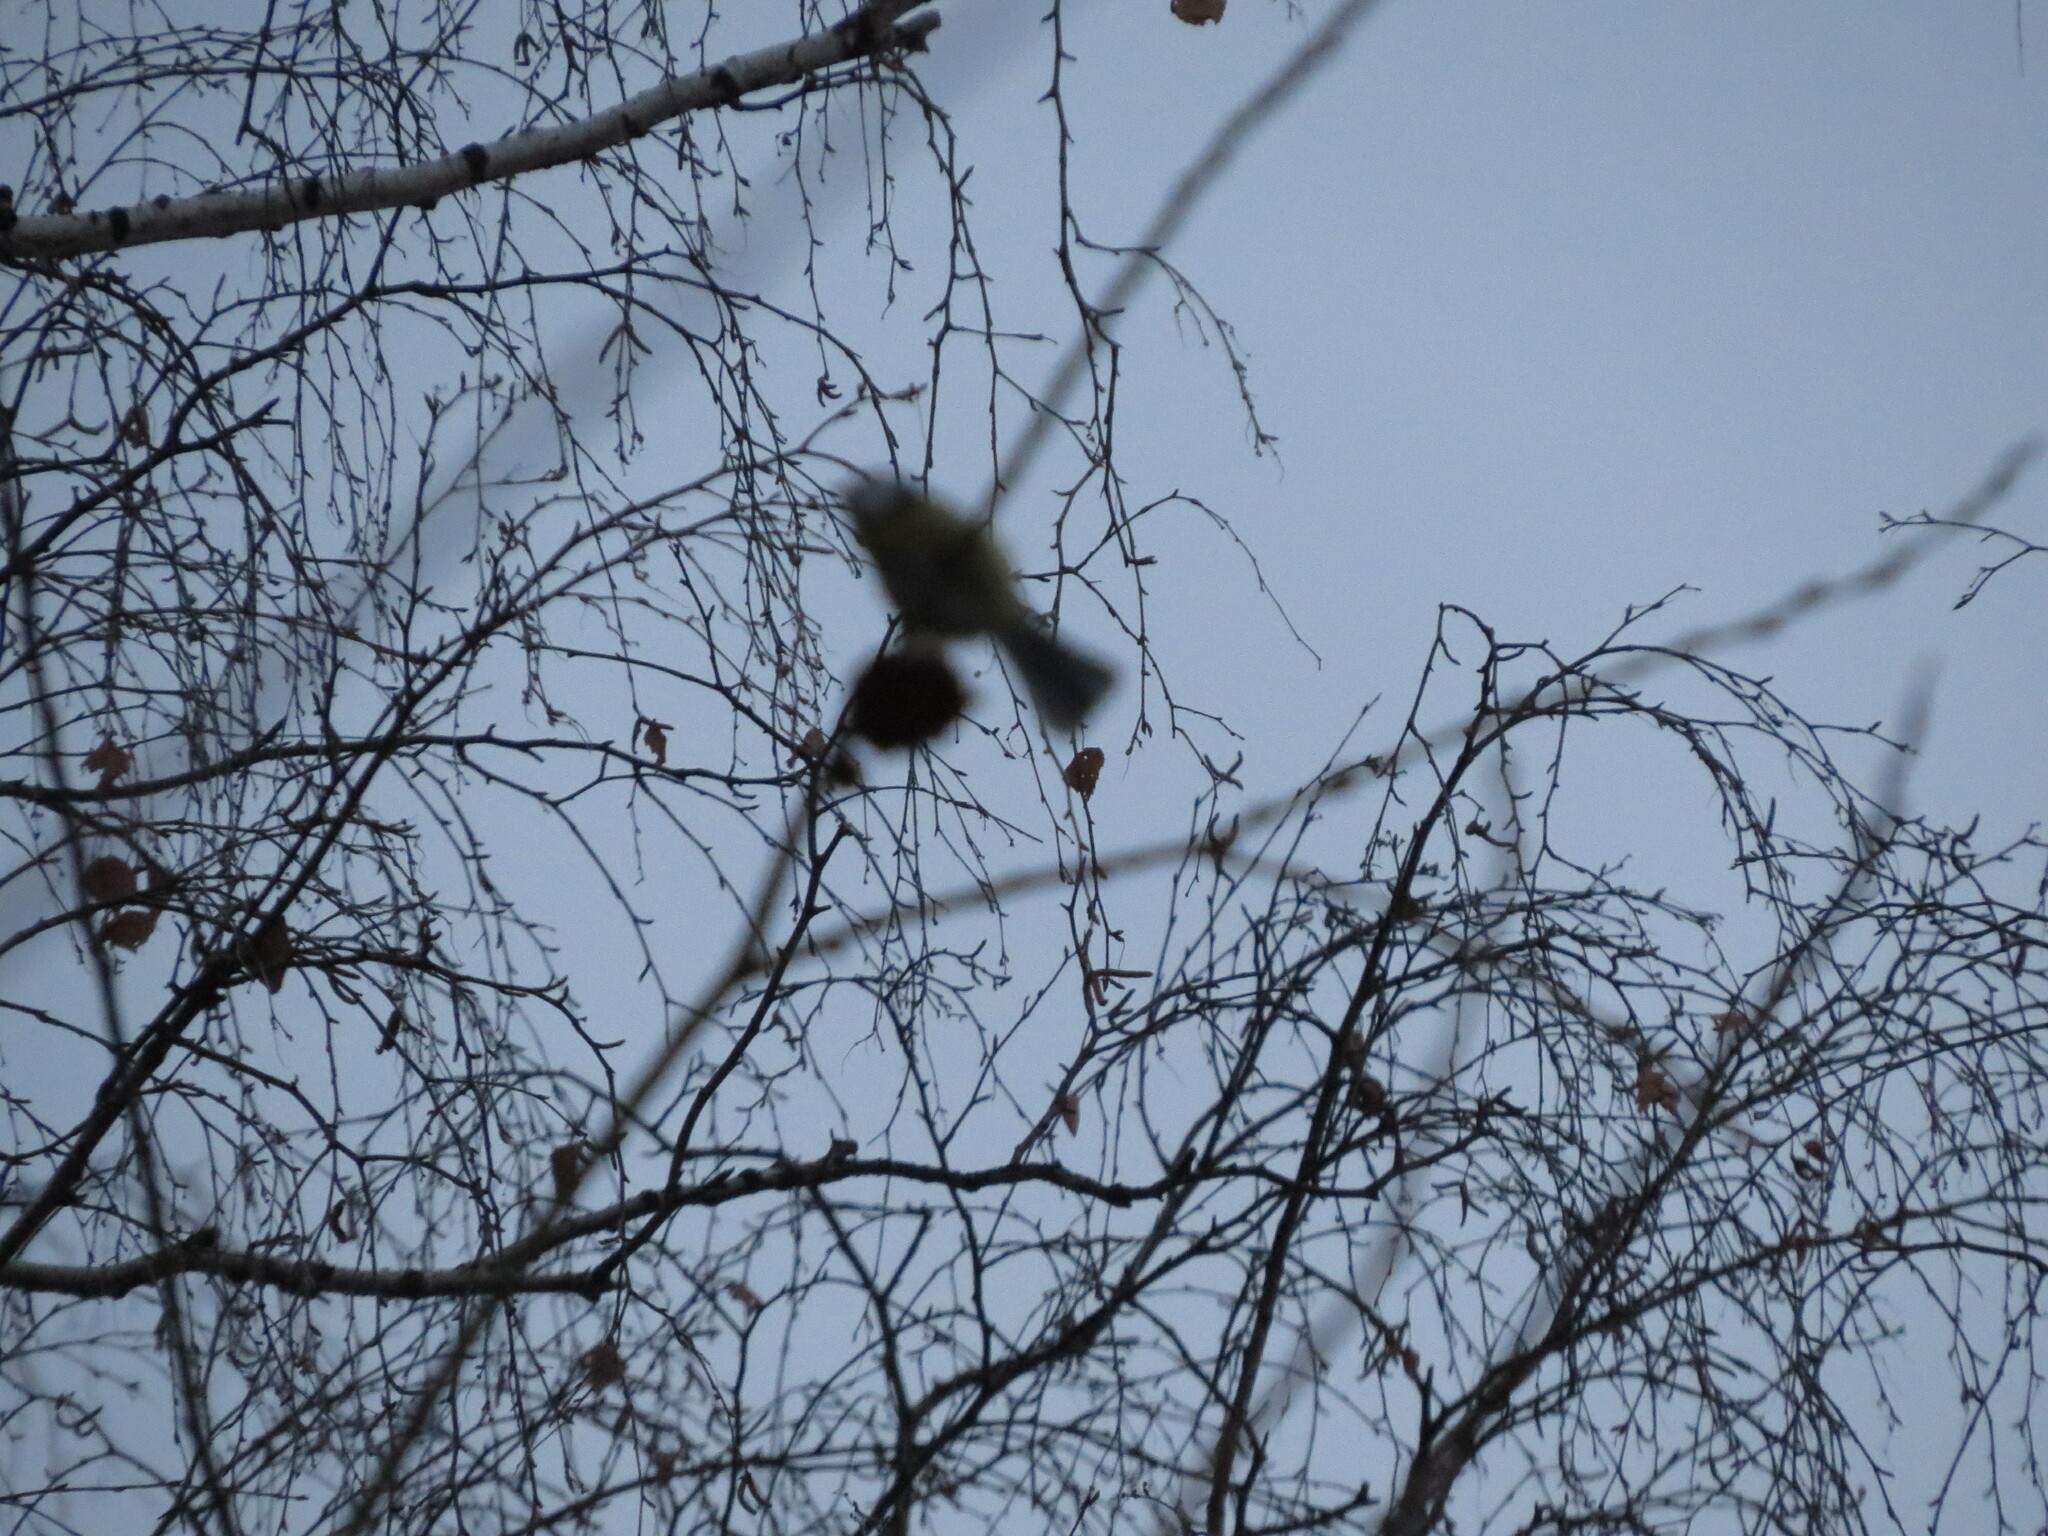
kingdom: Animalia
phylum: Chordata
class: Aves
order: Passeriformes
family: Paridae
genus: Cyanistes
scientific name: Cyanistes caeruleus
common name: Eurasian blue tit
